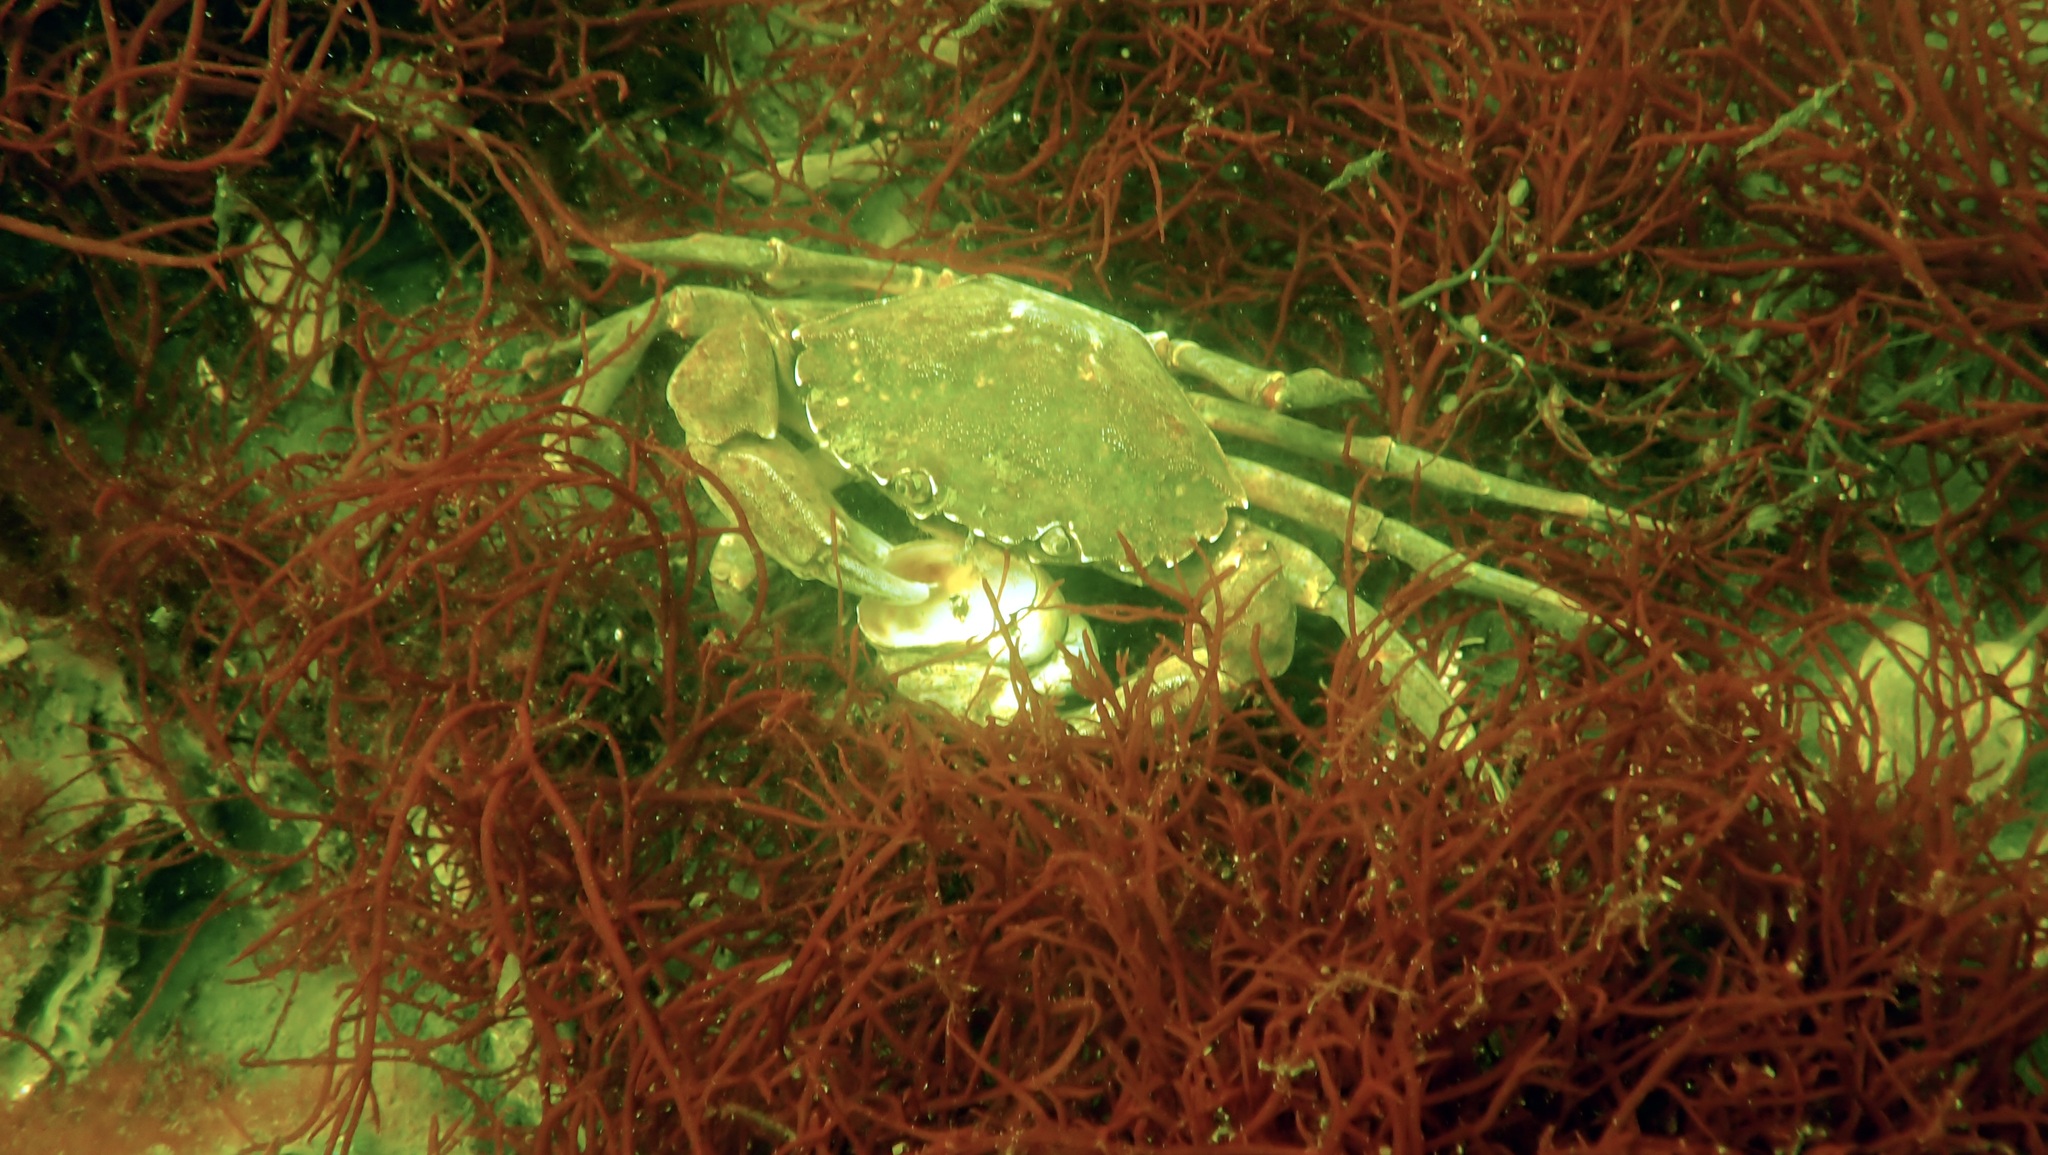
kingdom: Animalia
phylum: Arthropoda
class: Malacostraca
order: Decapoda
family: Carcinidae
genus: Carcinus
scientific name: Carcinus maenas
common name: European green crab
